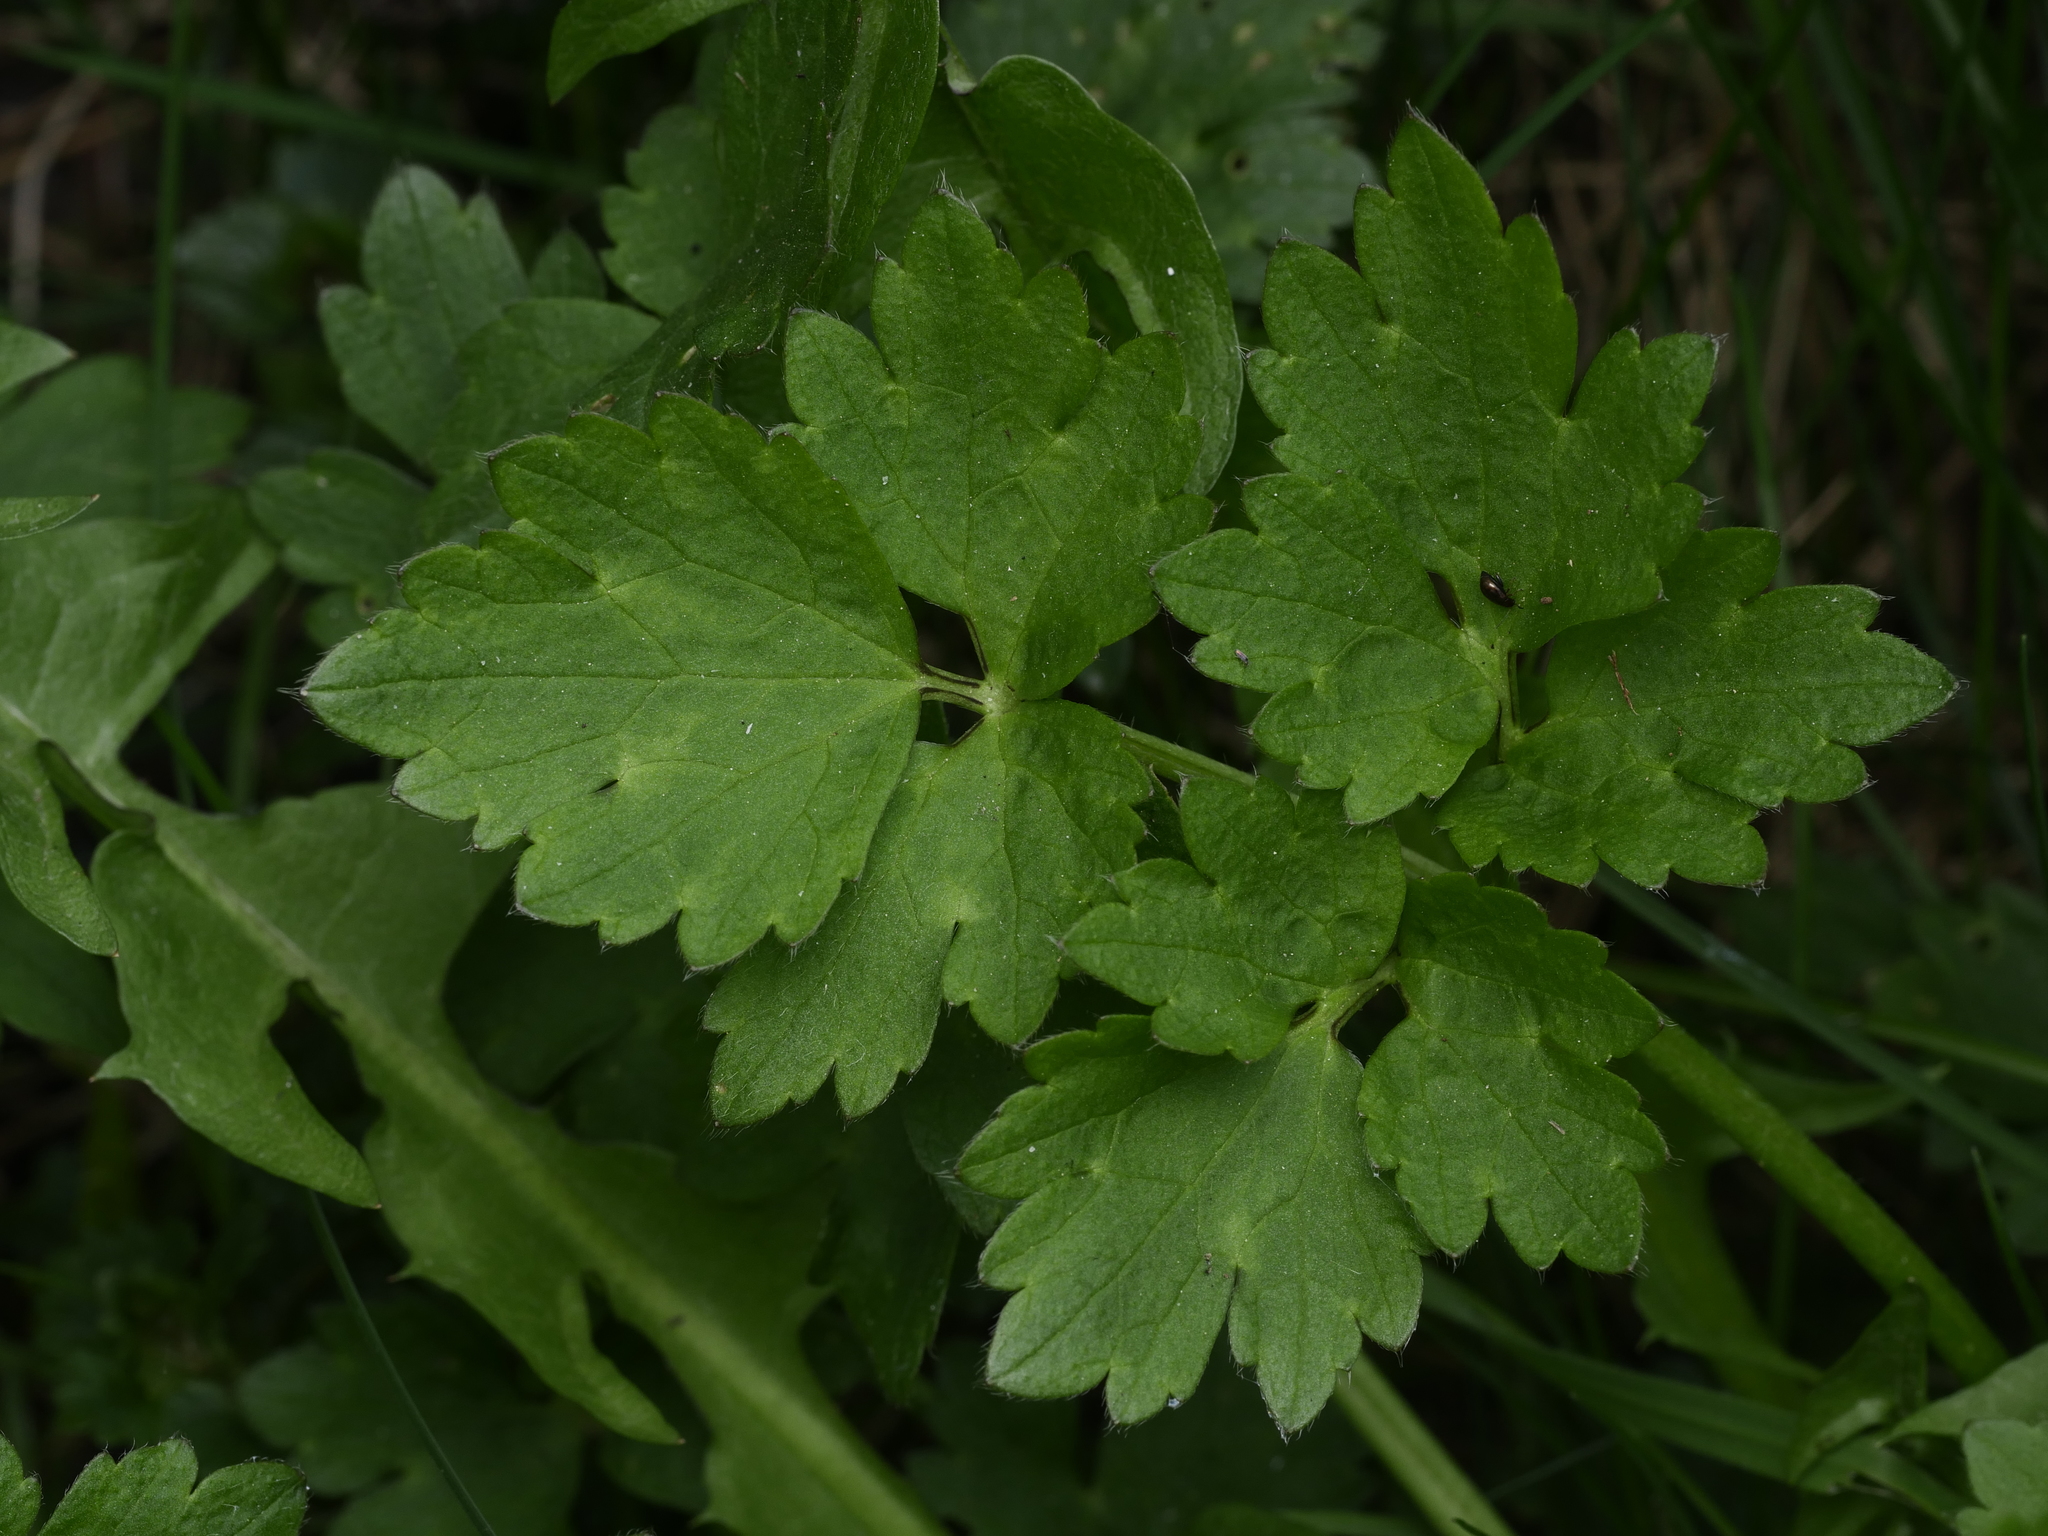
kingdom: Plantae
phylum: Tracheophyta
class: Magnoliopsida
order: Ranunculales
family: Ranunculaceae
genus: Ranunculus
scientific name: Ranunculus repens
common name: Creeping buttercup
